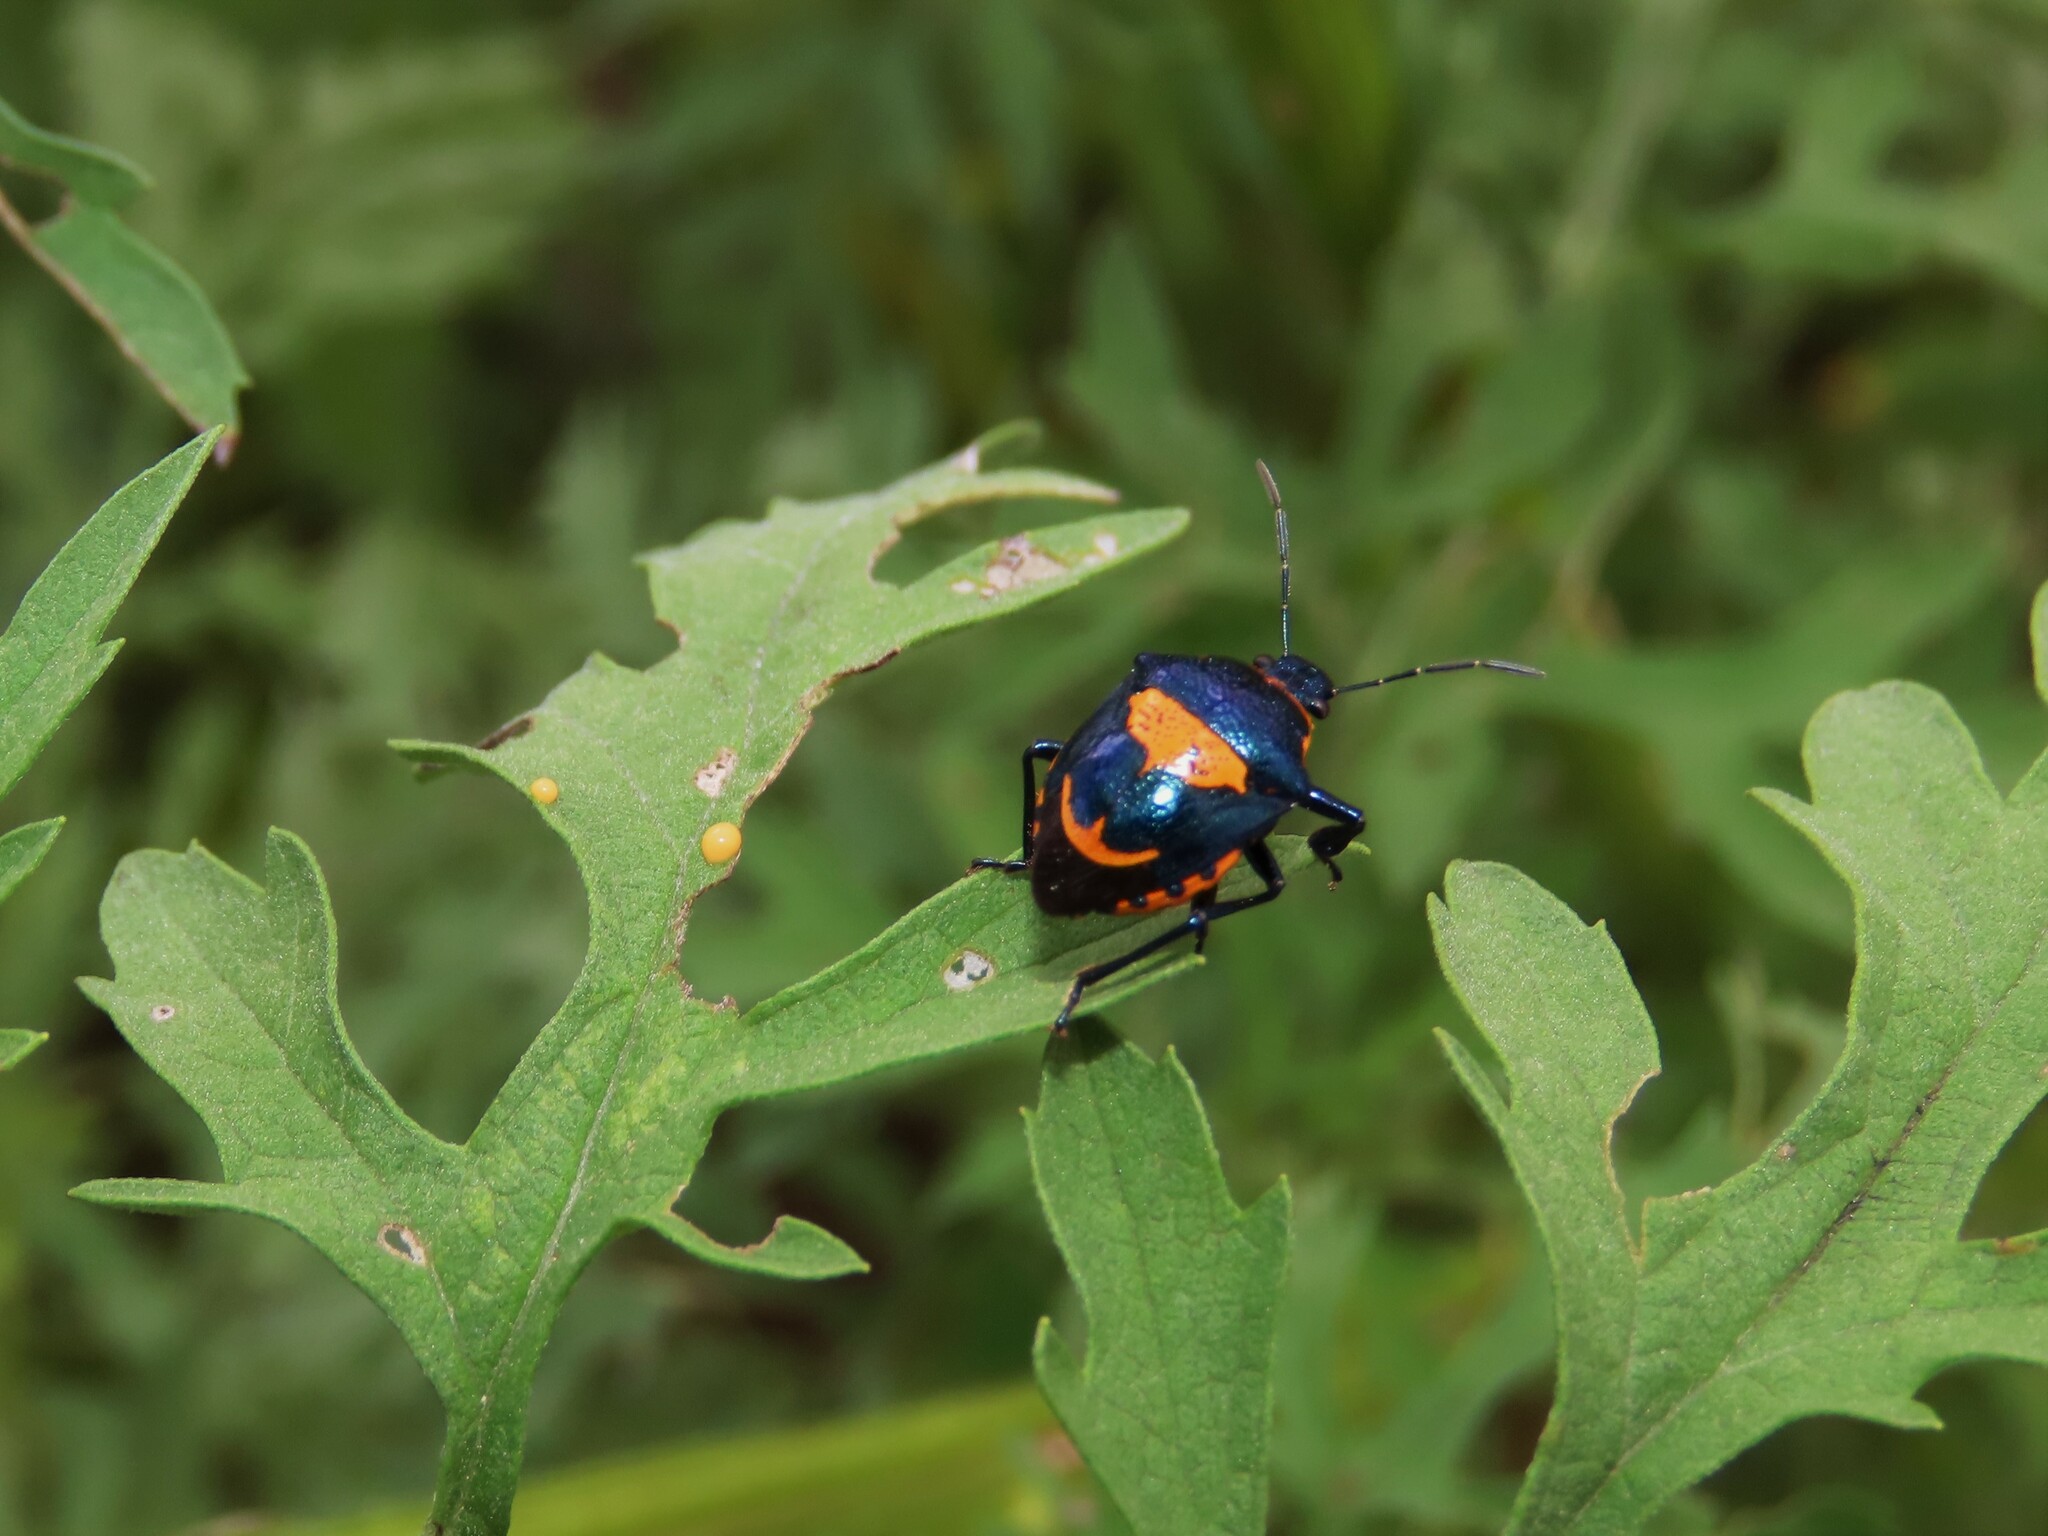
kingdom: Animalia
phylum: Arthropoda
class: Insecta
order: Hemiptera
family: Pentatomidae
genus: Stiretrus
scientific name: Stiretrus anchorago
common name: Anchor stink bug
